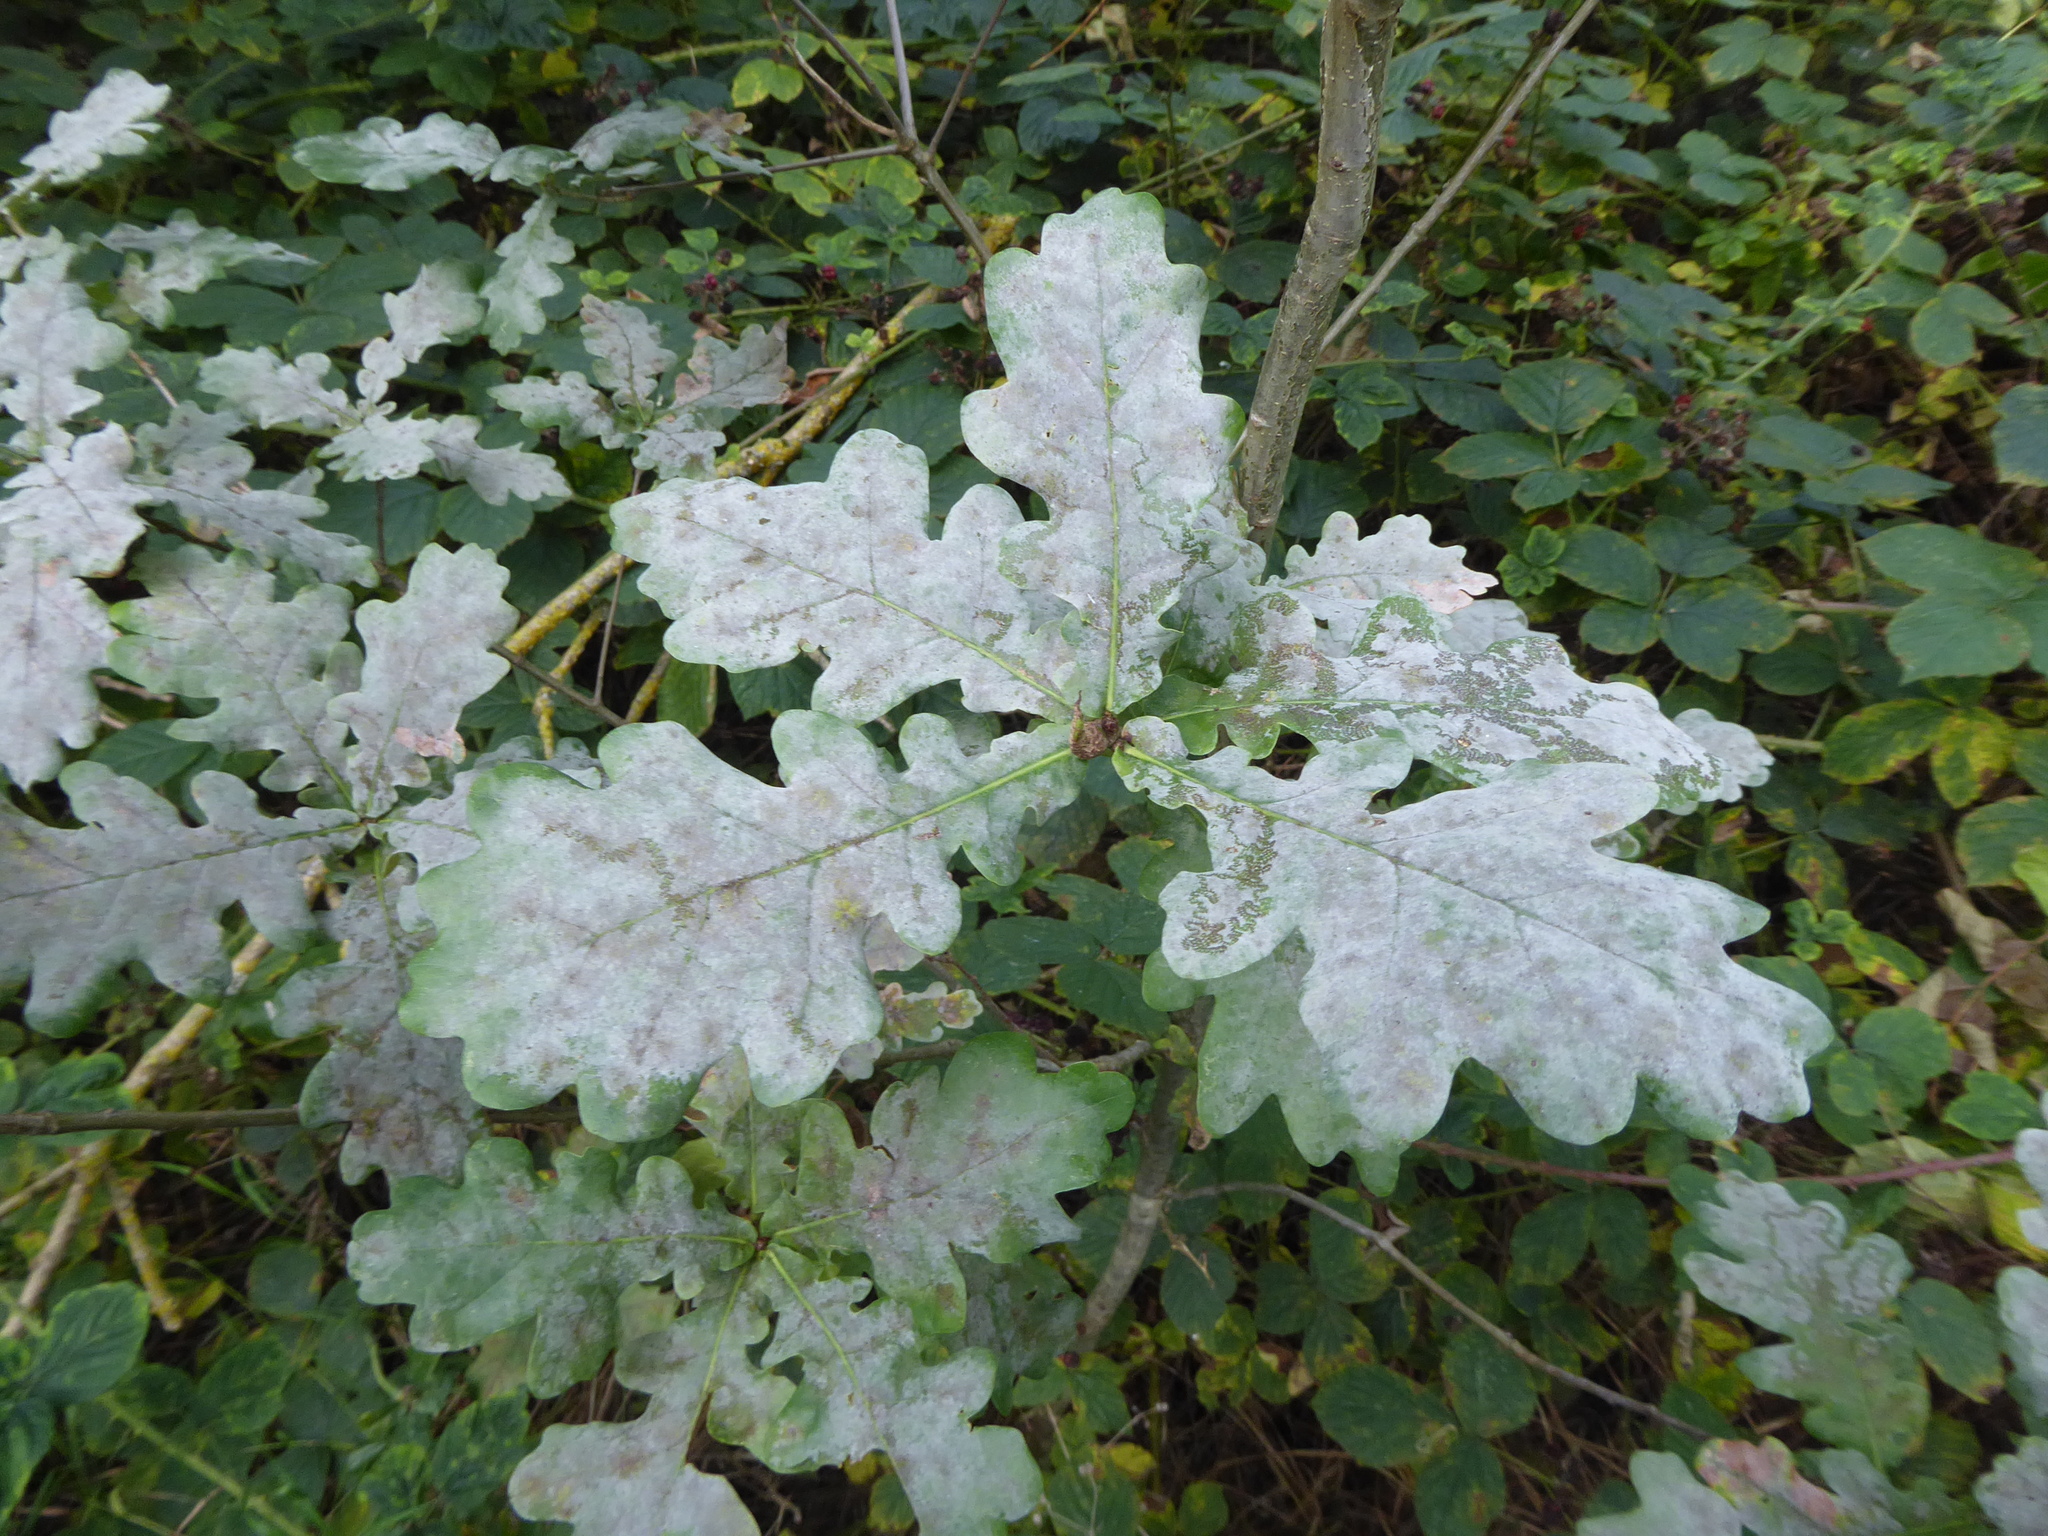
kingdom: Fungi
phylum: Ascomycota
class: Leotiomycetes
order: Helotiales
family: Erysiphaceae
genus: Erysiphe
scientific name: Erysiphe alphitoides
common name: Oak mildew
